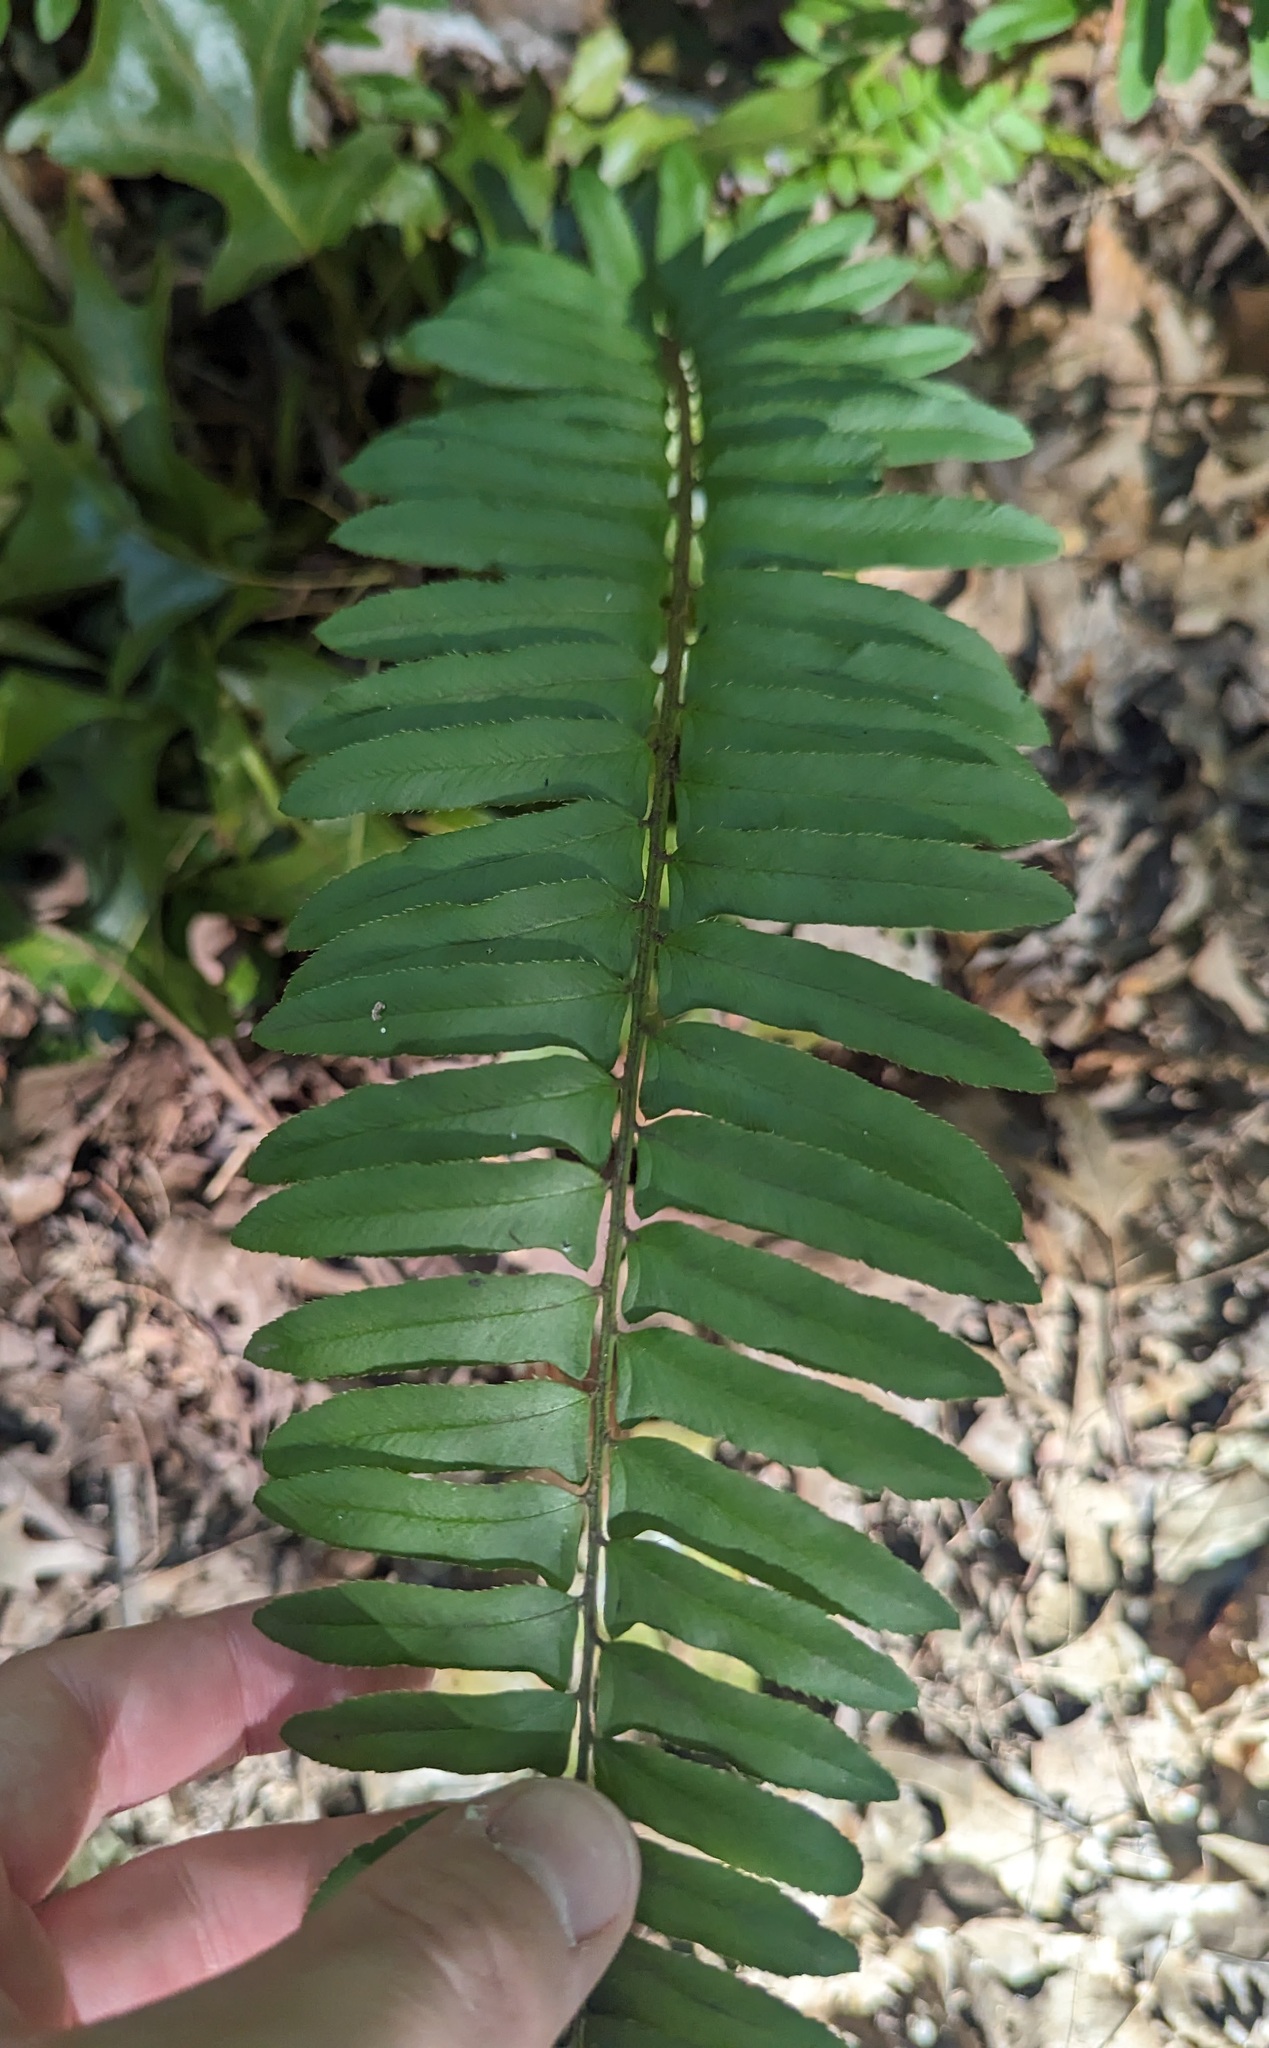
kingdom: Plantae
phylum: Tracheophyta
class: Polypodiopsida
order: Polypodiales
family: Dryopteridaceae
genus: Polystichum
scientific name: Polystichum acrostichoides
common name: Christmas fern
